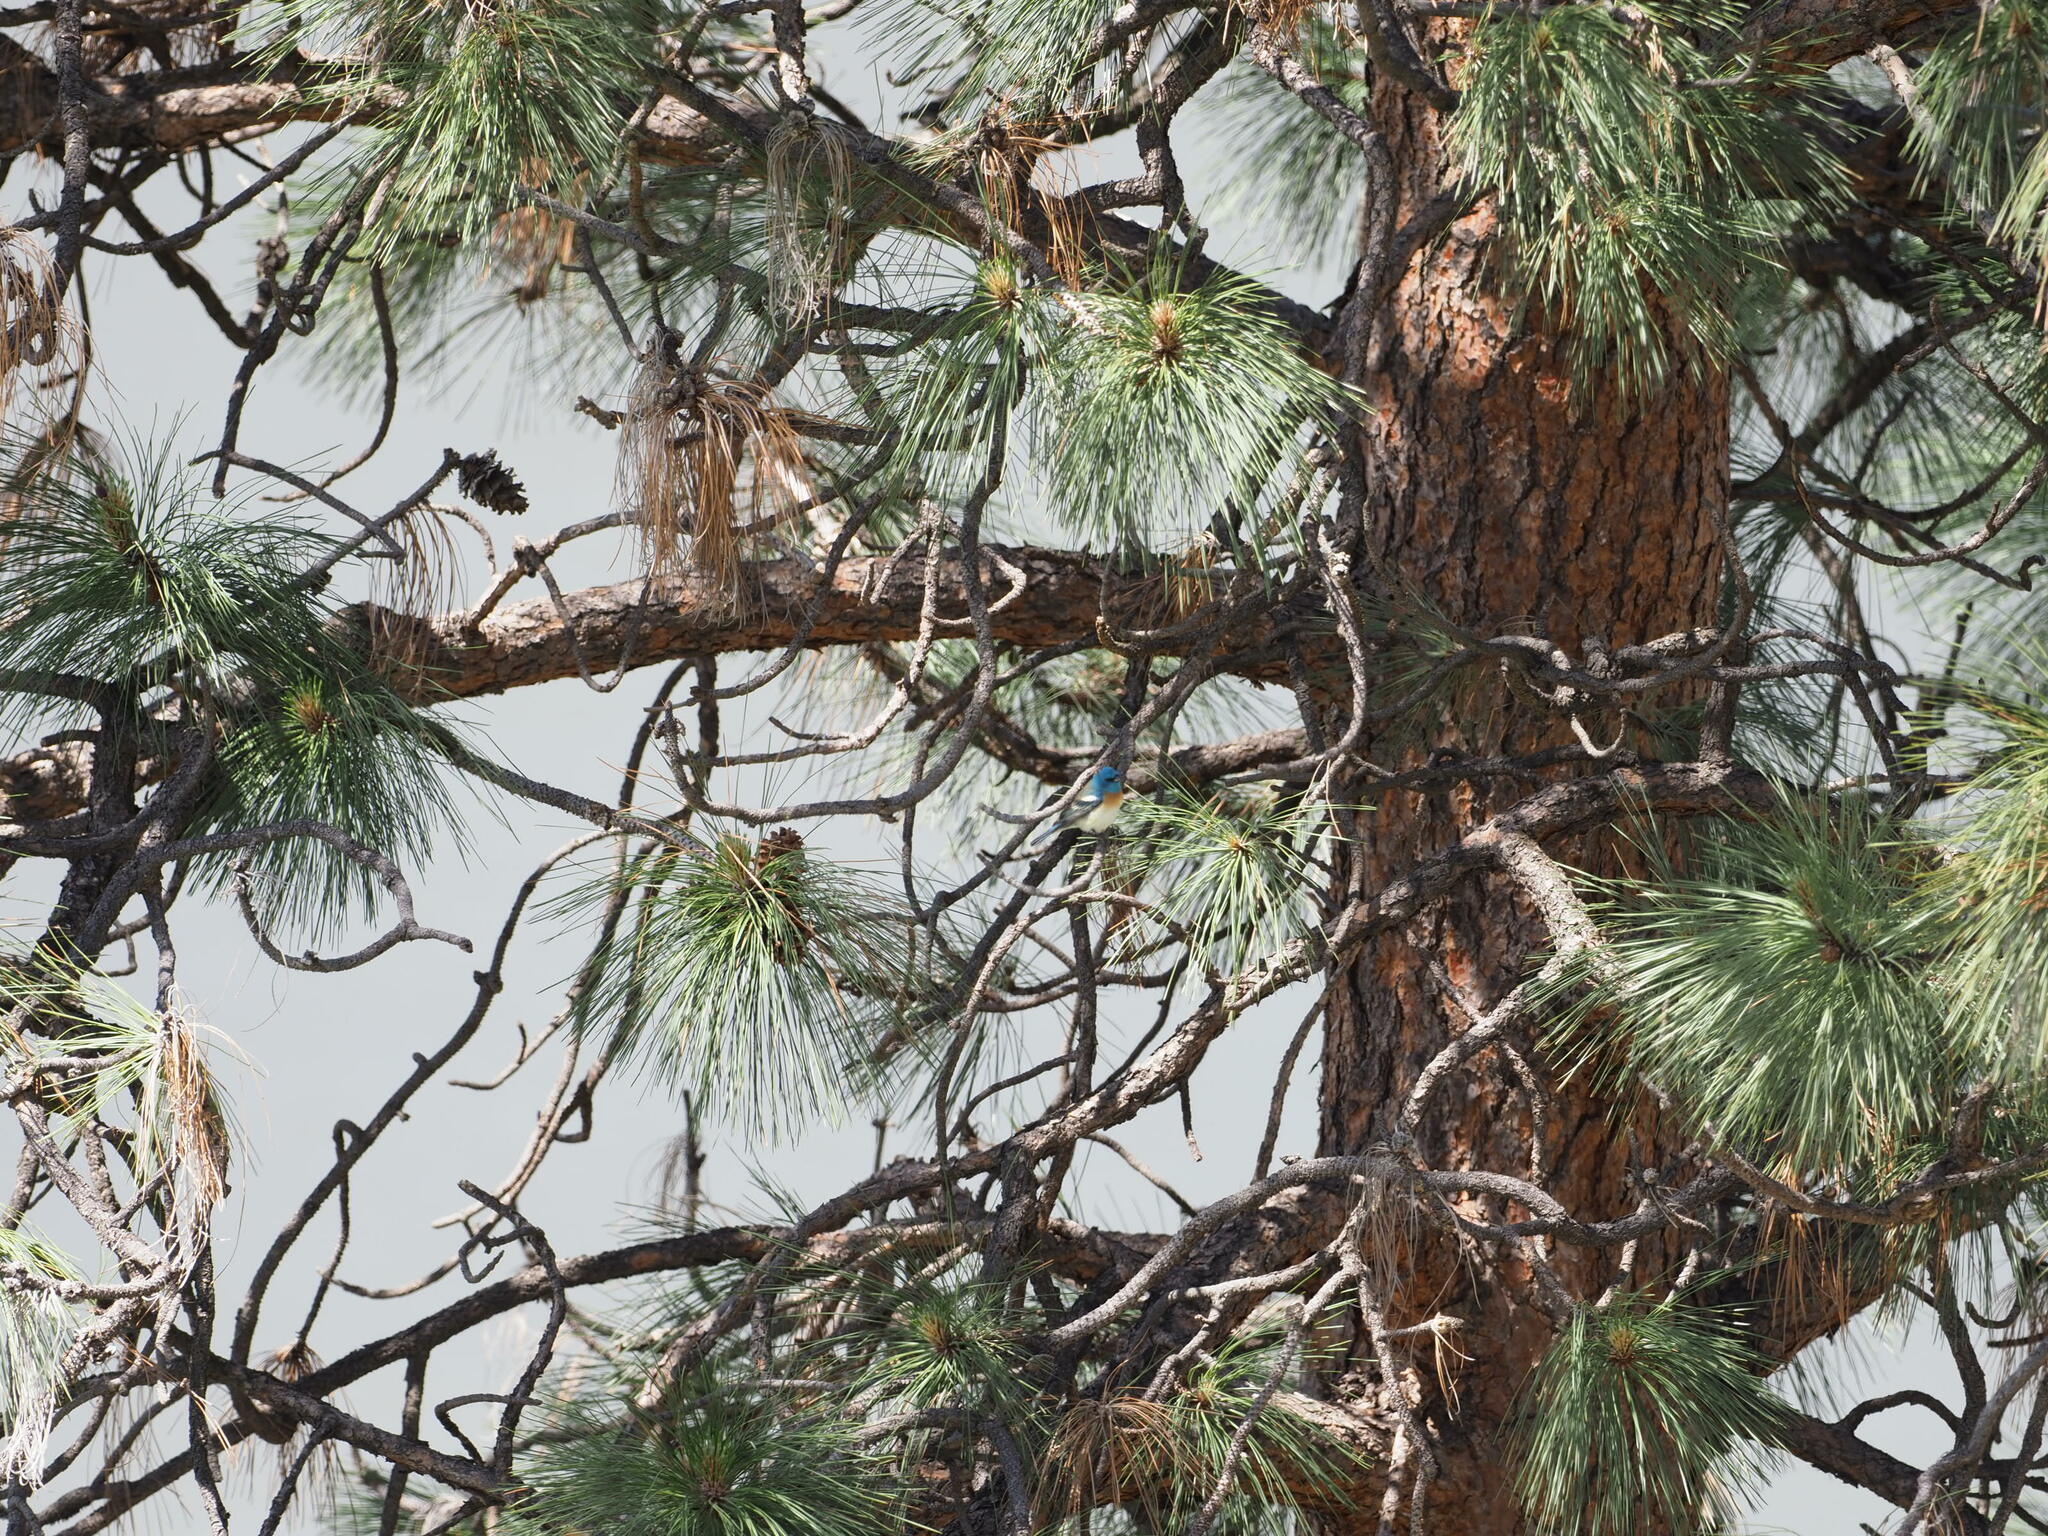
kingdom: Animalia
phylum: Chordata
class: Aves
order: Passeriformes
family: Cardinalidae
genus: Passerina
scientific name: Passerina amoena
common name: Lazuli bunting
